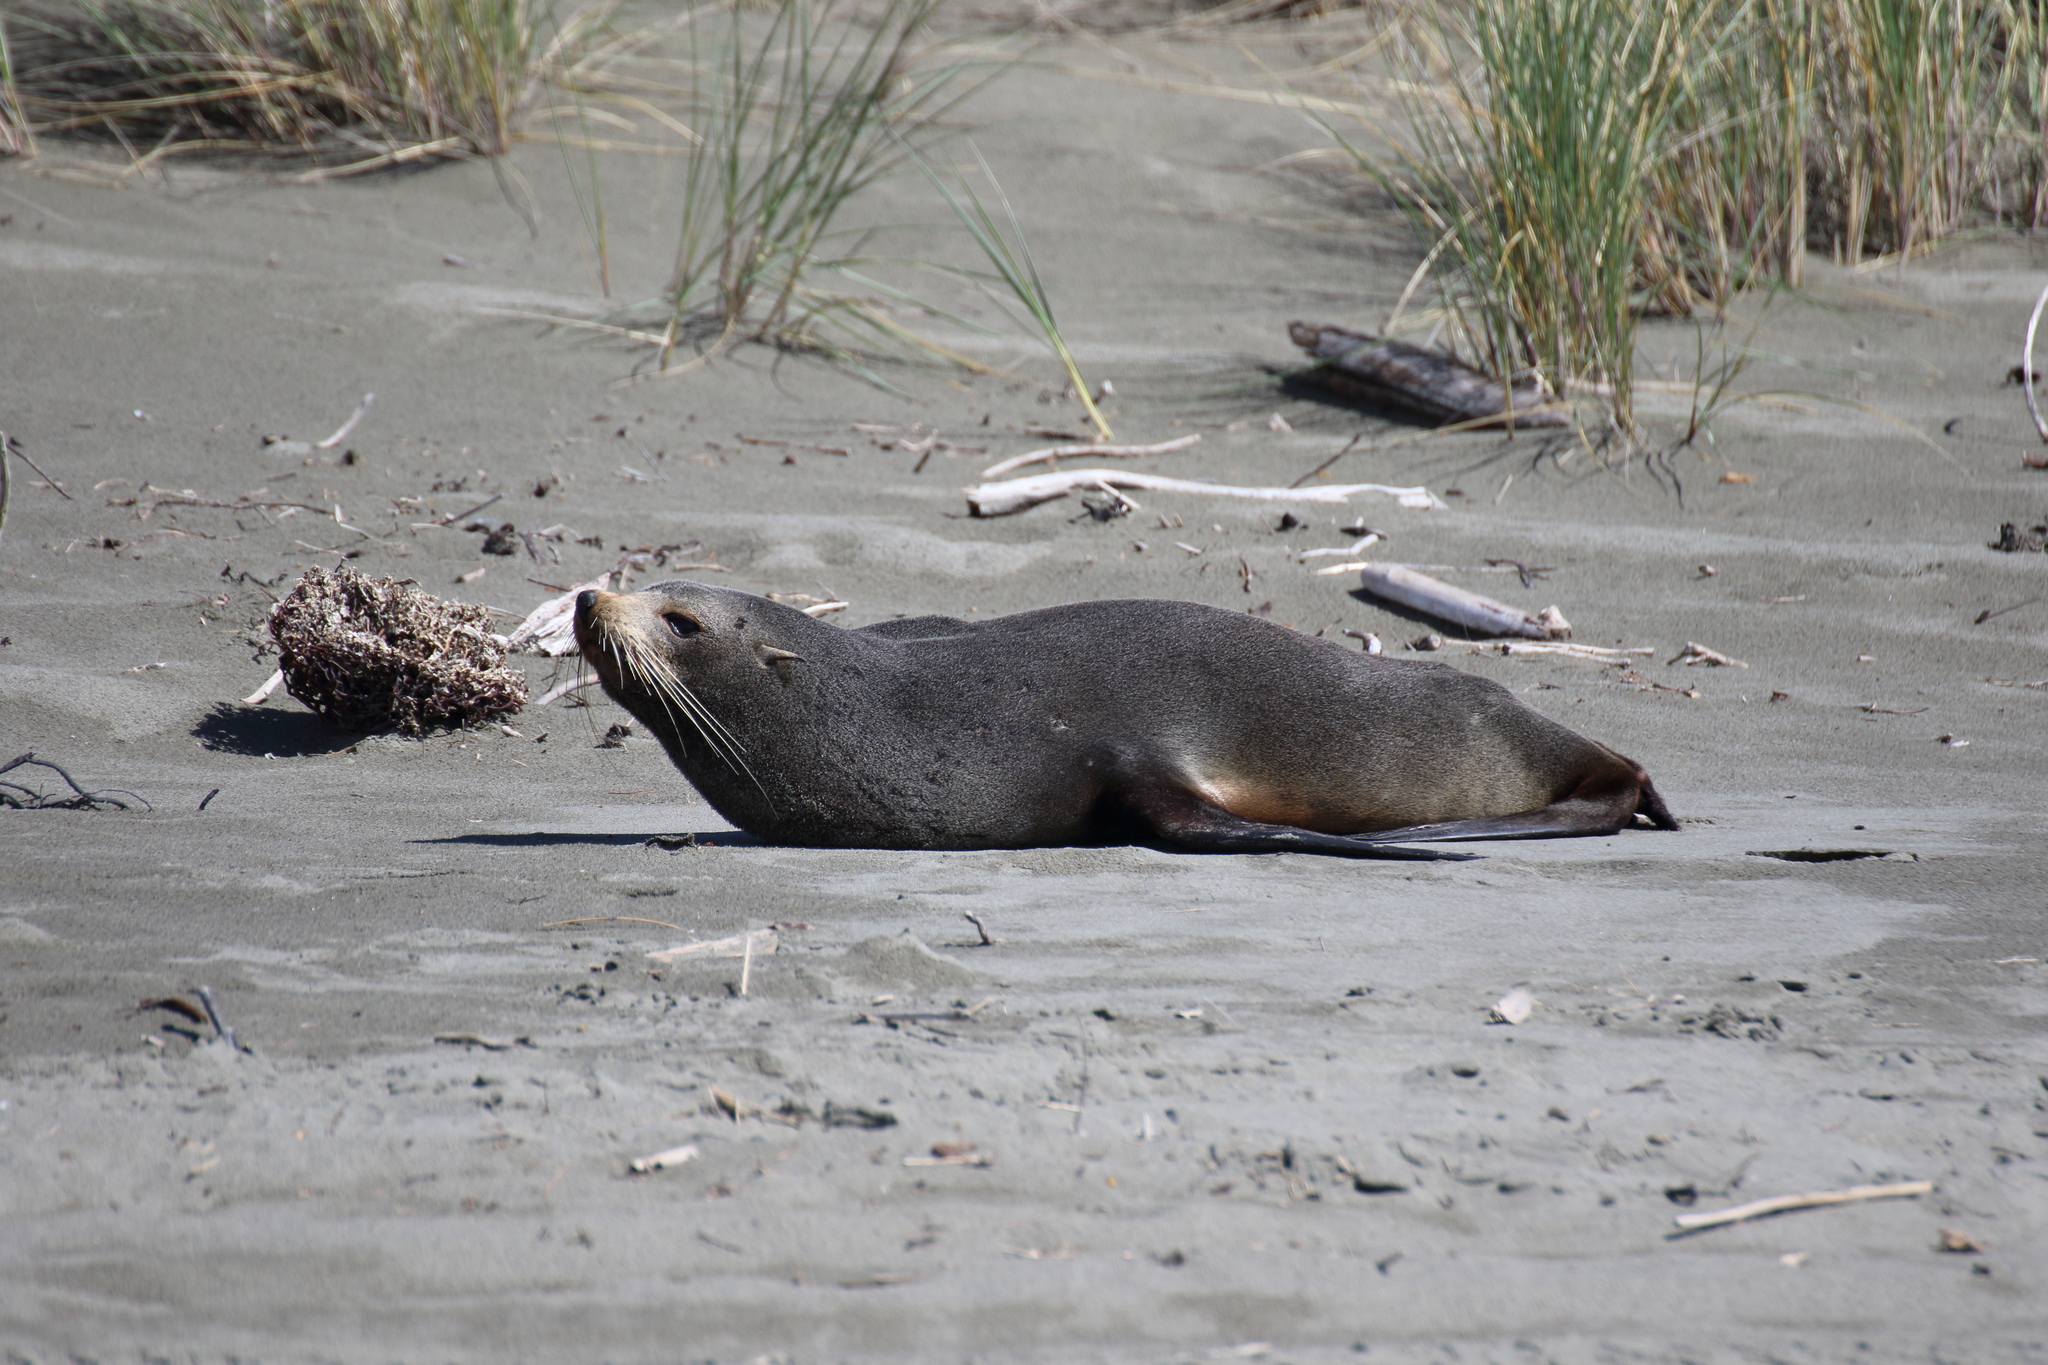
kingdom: Animalia
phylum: Chordata
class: Mammalia
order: Carnivora
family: Otariidae
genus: Arctocephalus
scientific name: Arctocephalus forsteri
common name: New zealand fur seal
